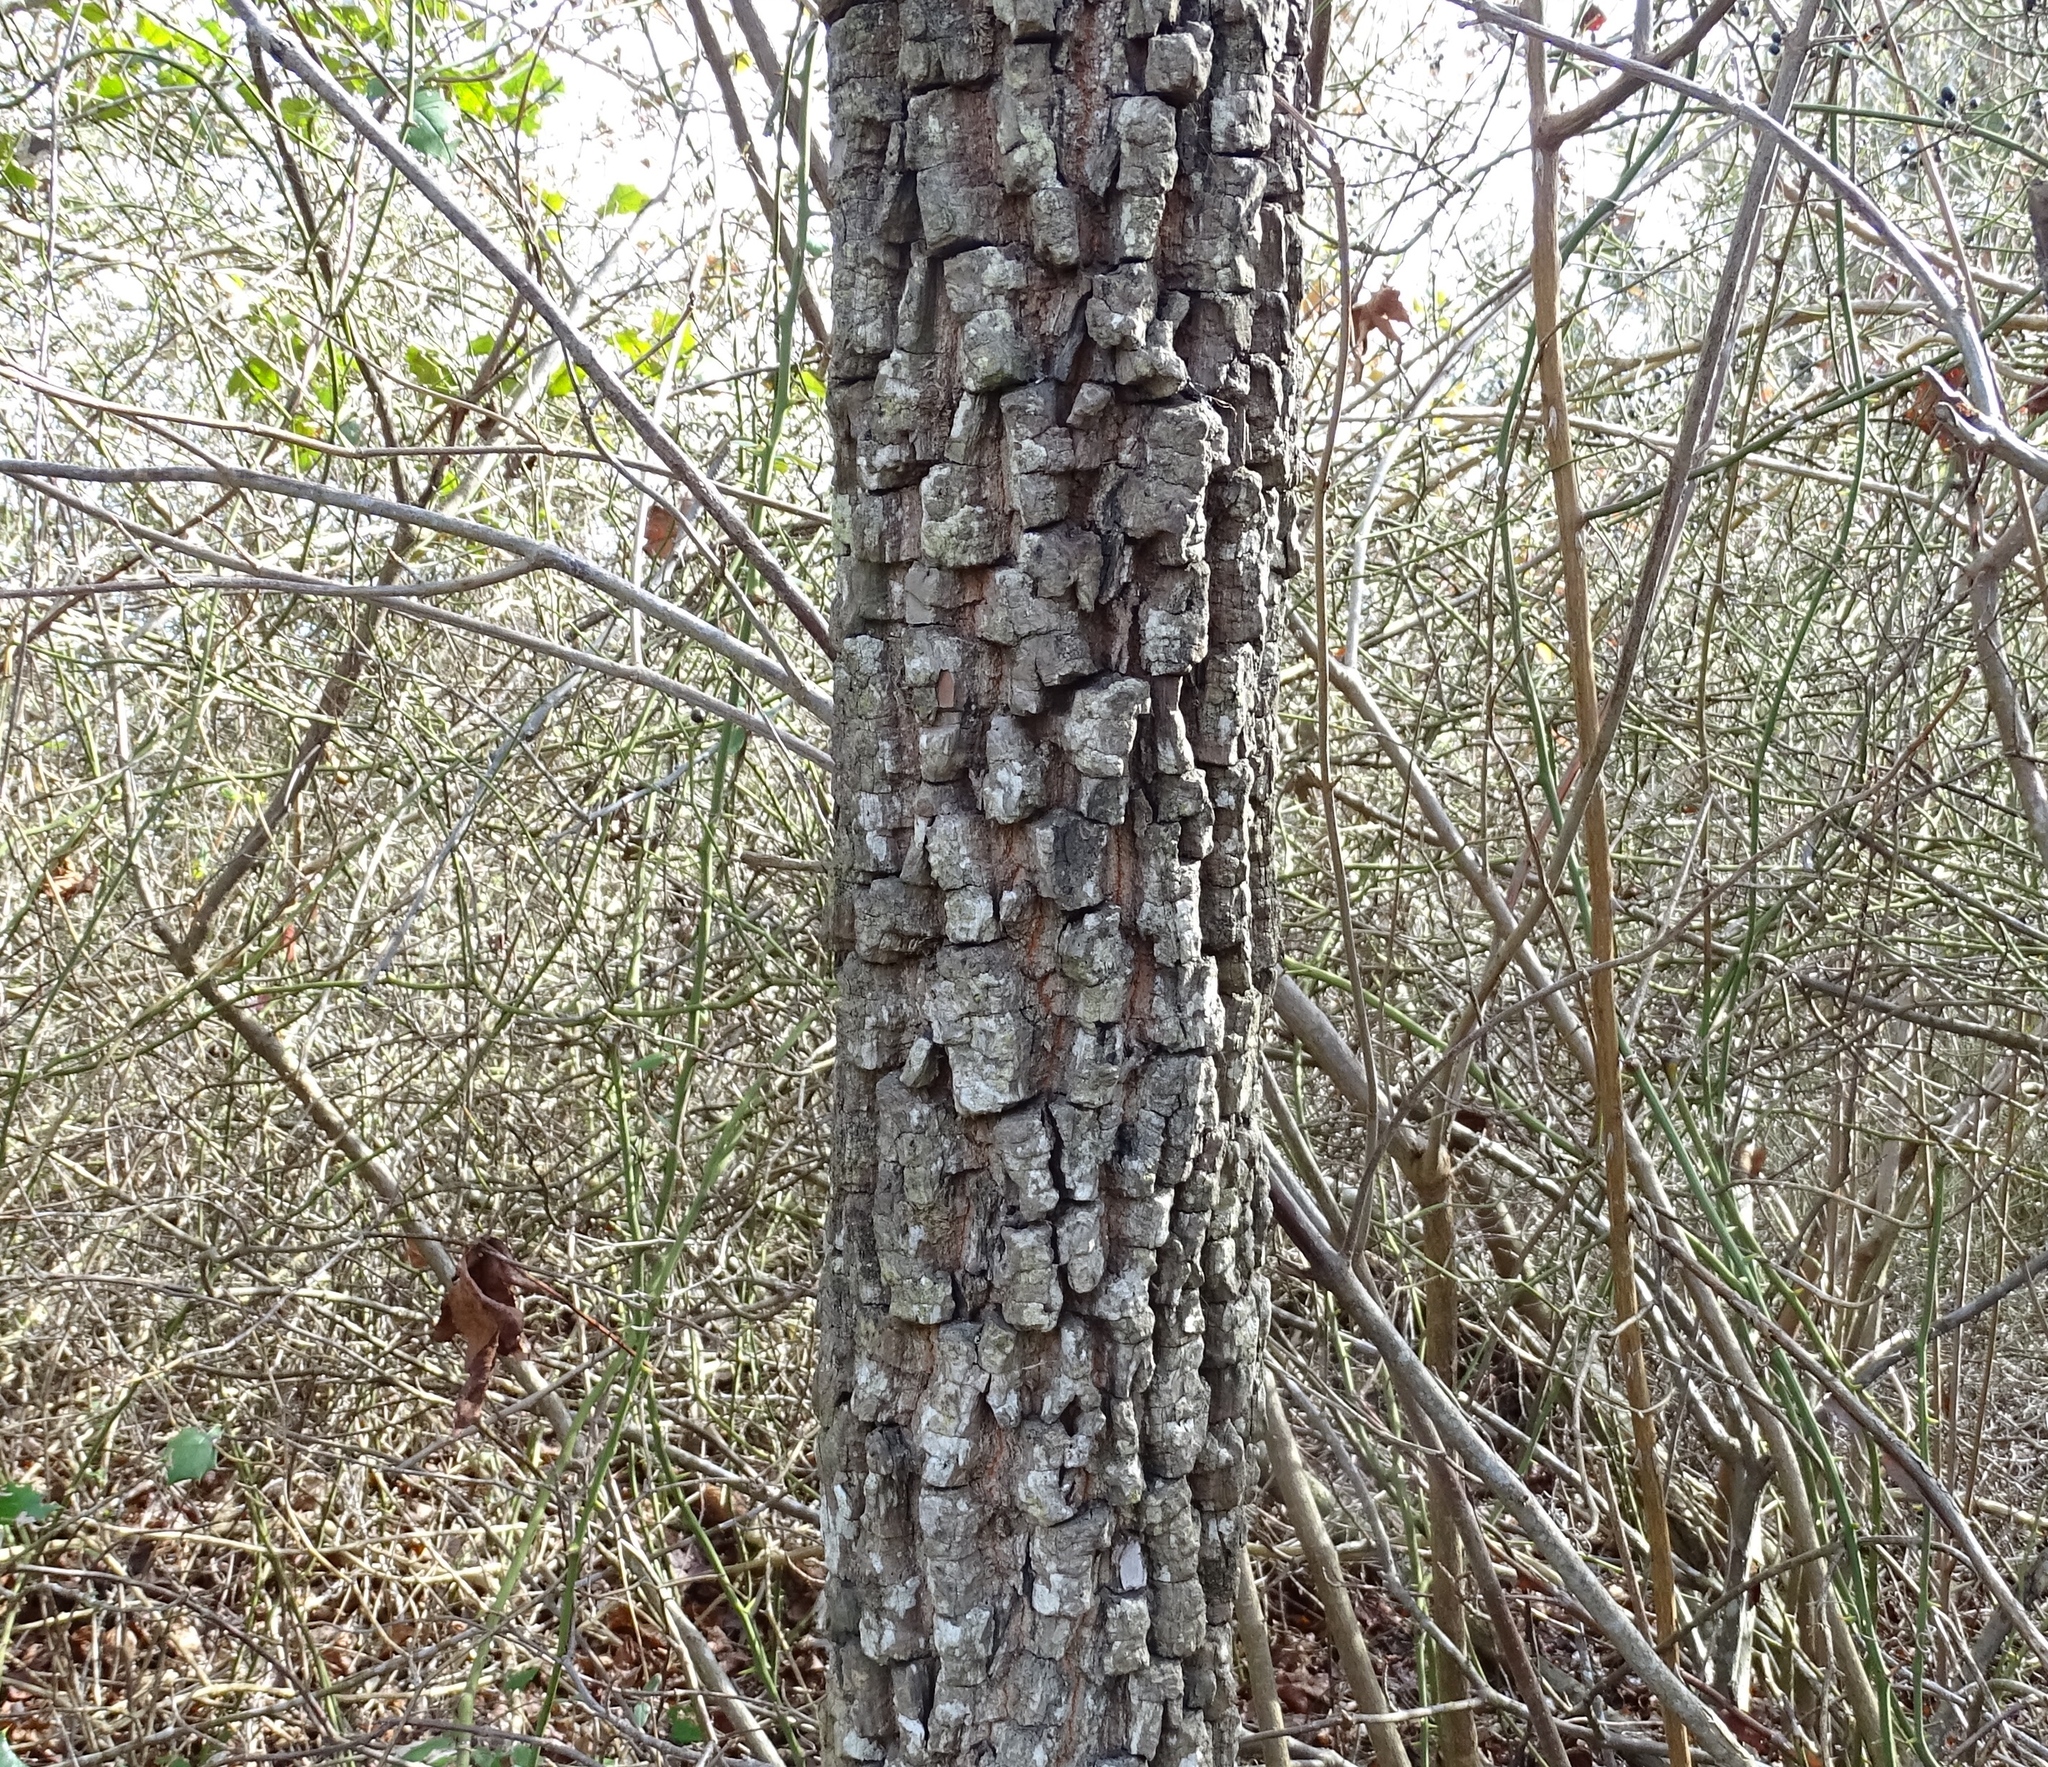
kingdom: Plantae
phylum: Tracheophyta
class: Magnoliopsida
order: Ericales
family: Ebenaceae
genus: Diospyros
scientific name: Diospyros virginiana
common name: Persimmon
